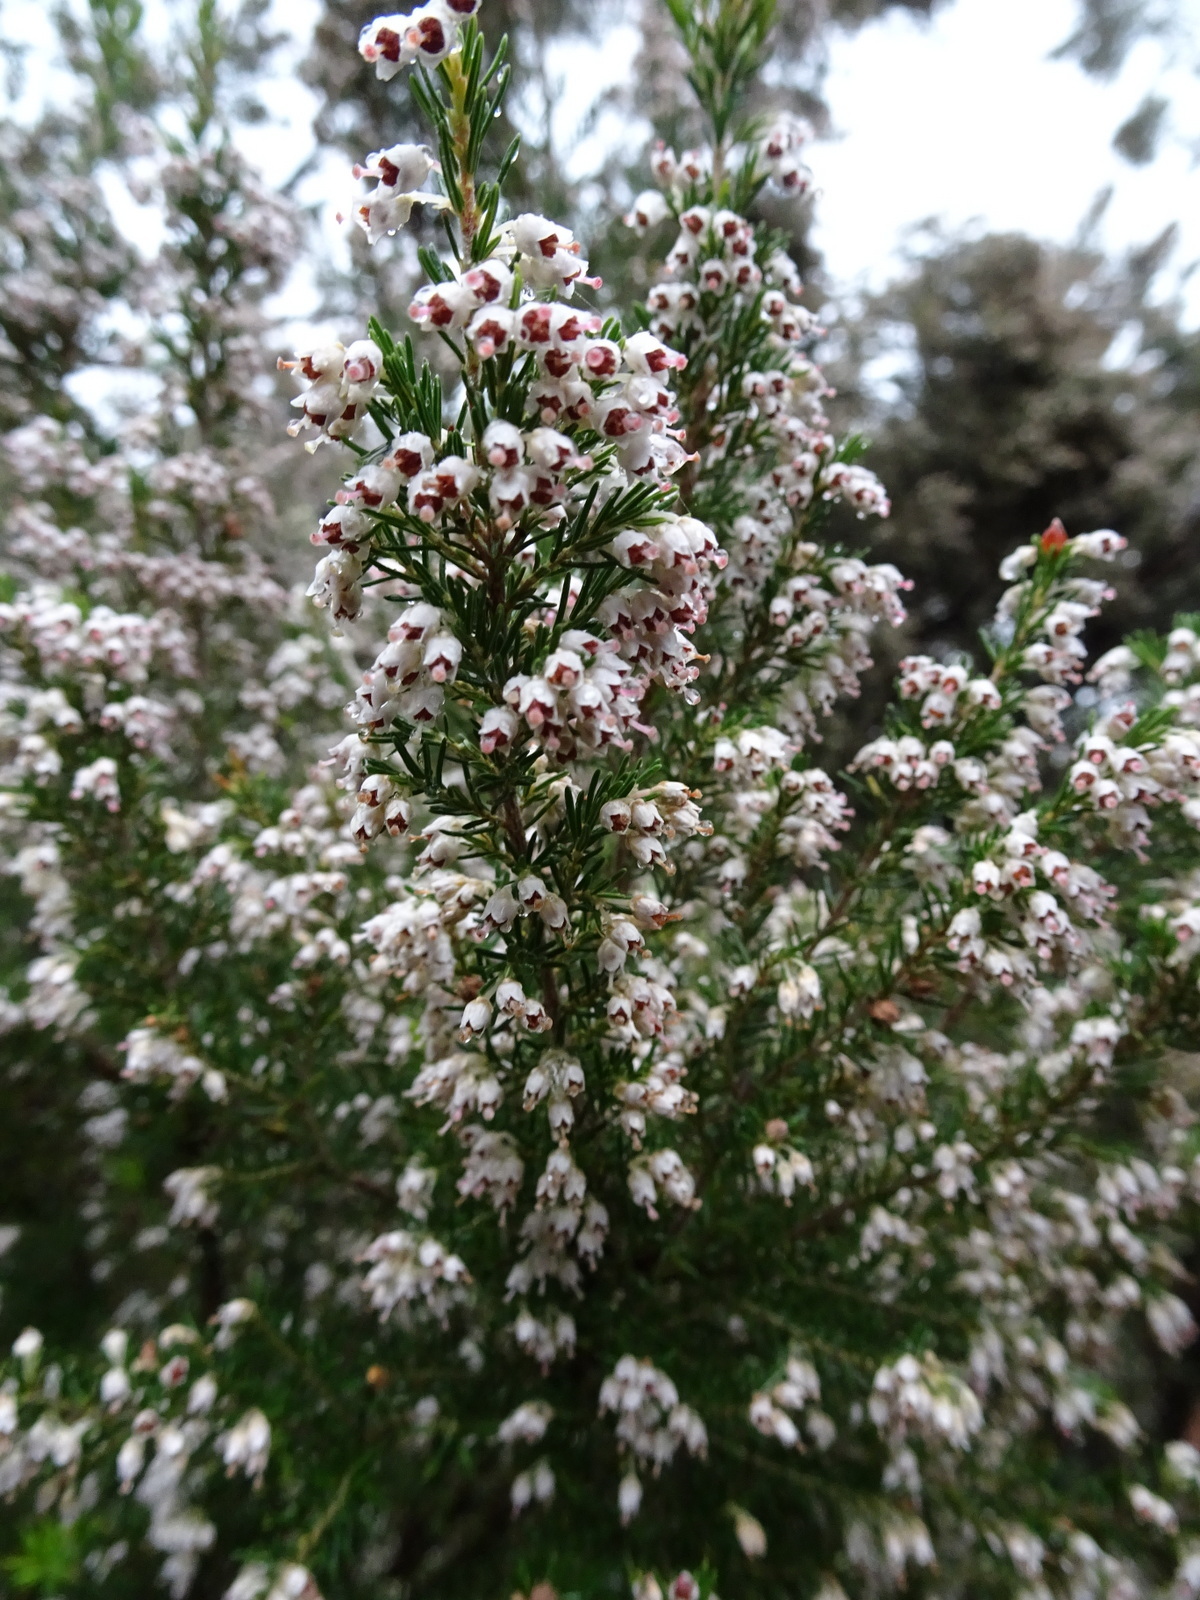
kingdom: Plantae
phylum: Tracheophyta
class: Magnoliopsida
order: Ericales
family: Ericaceae
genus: Erica
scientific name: Erica arborea
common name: Tree heath
